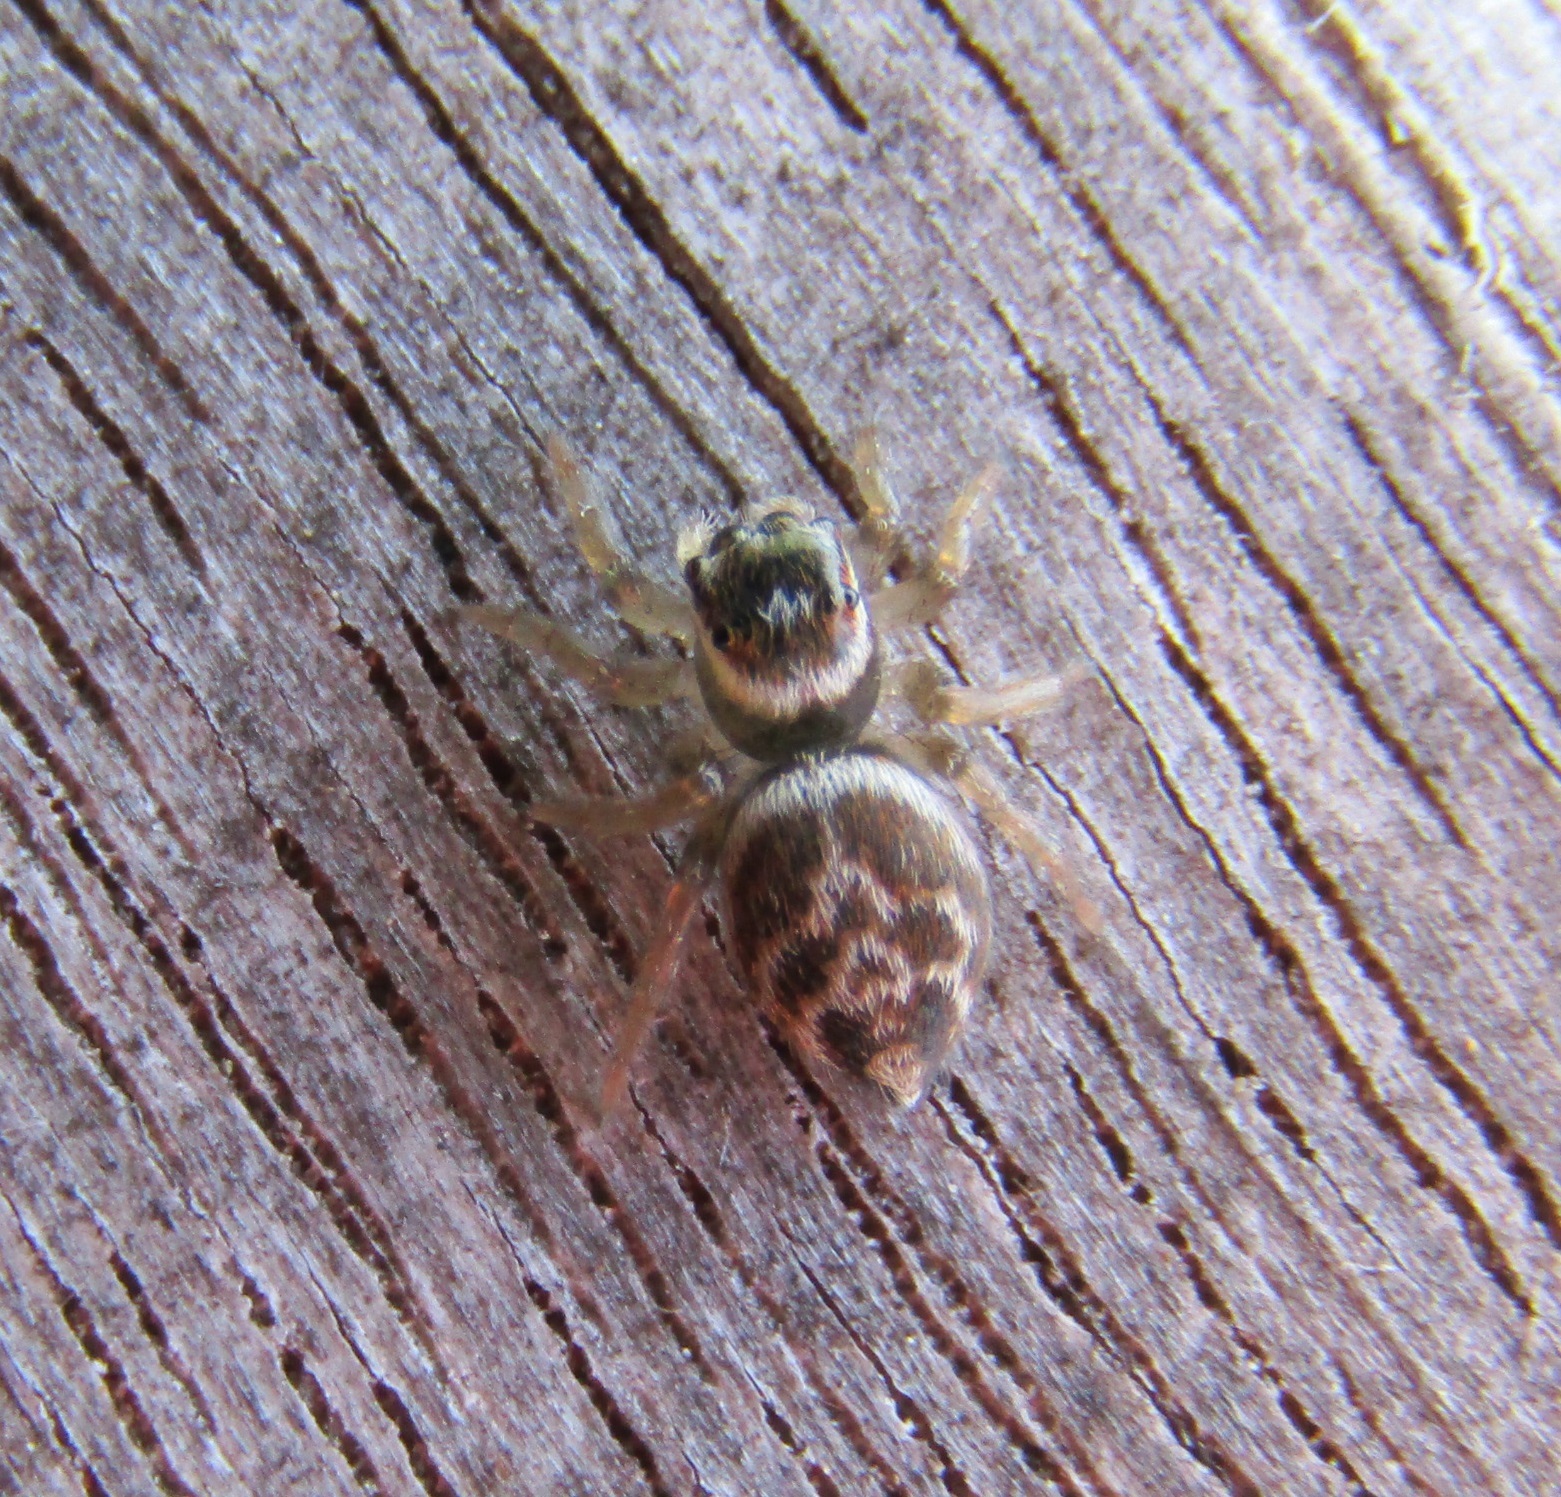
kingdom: Animalia
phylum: Arthropoda
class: Arachnida
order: Araneae
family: Salticidae
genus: Maratus
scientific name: Maratus griseus
